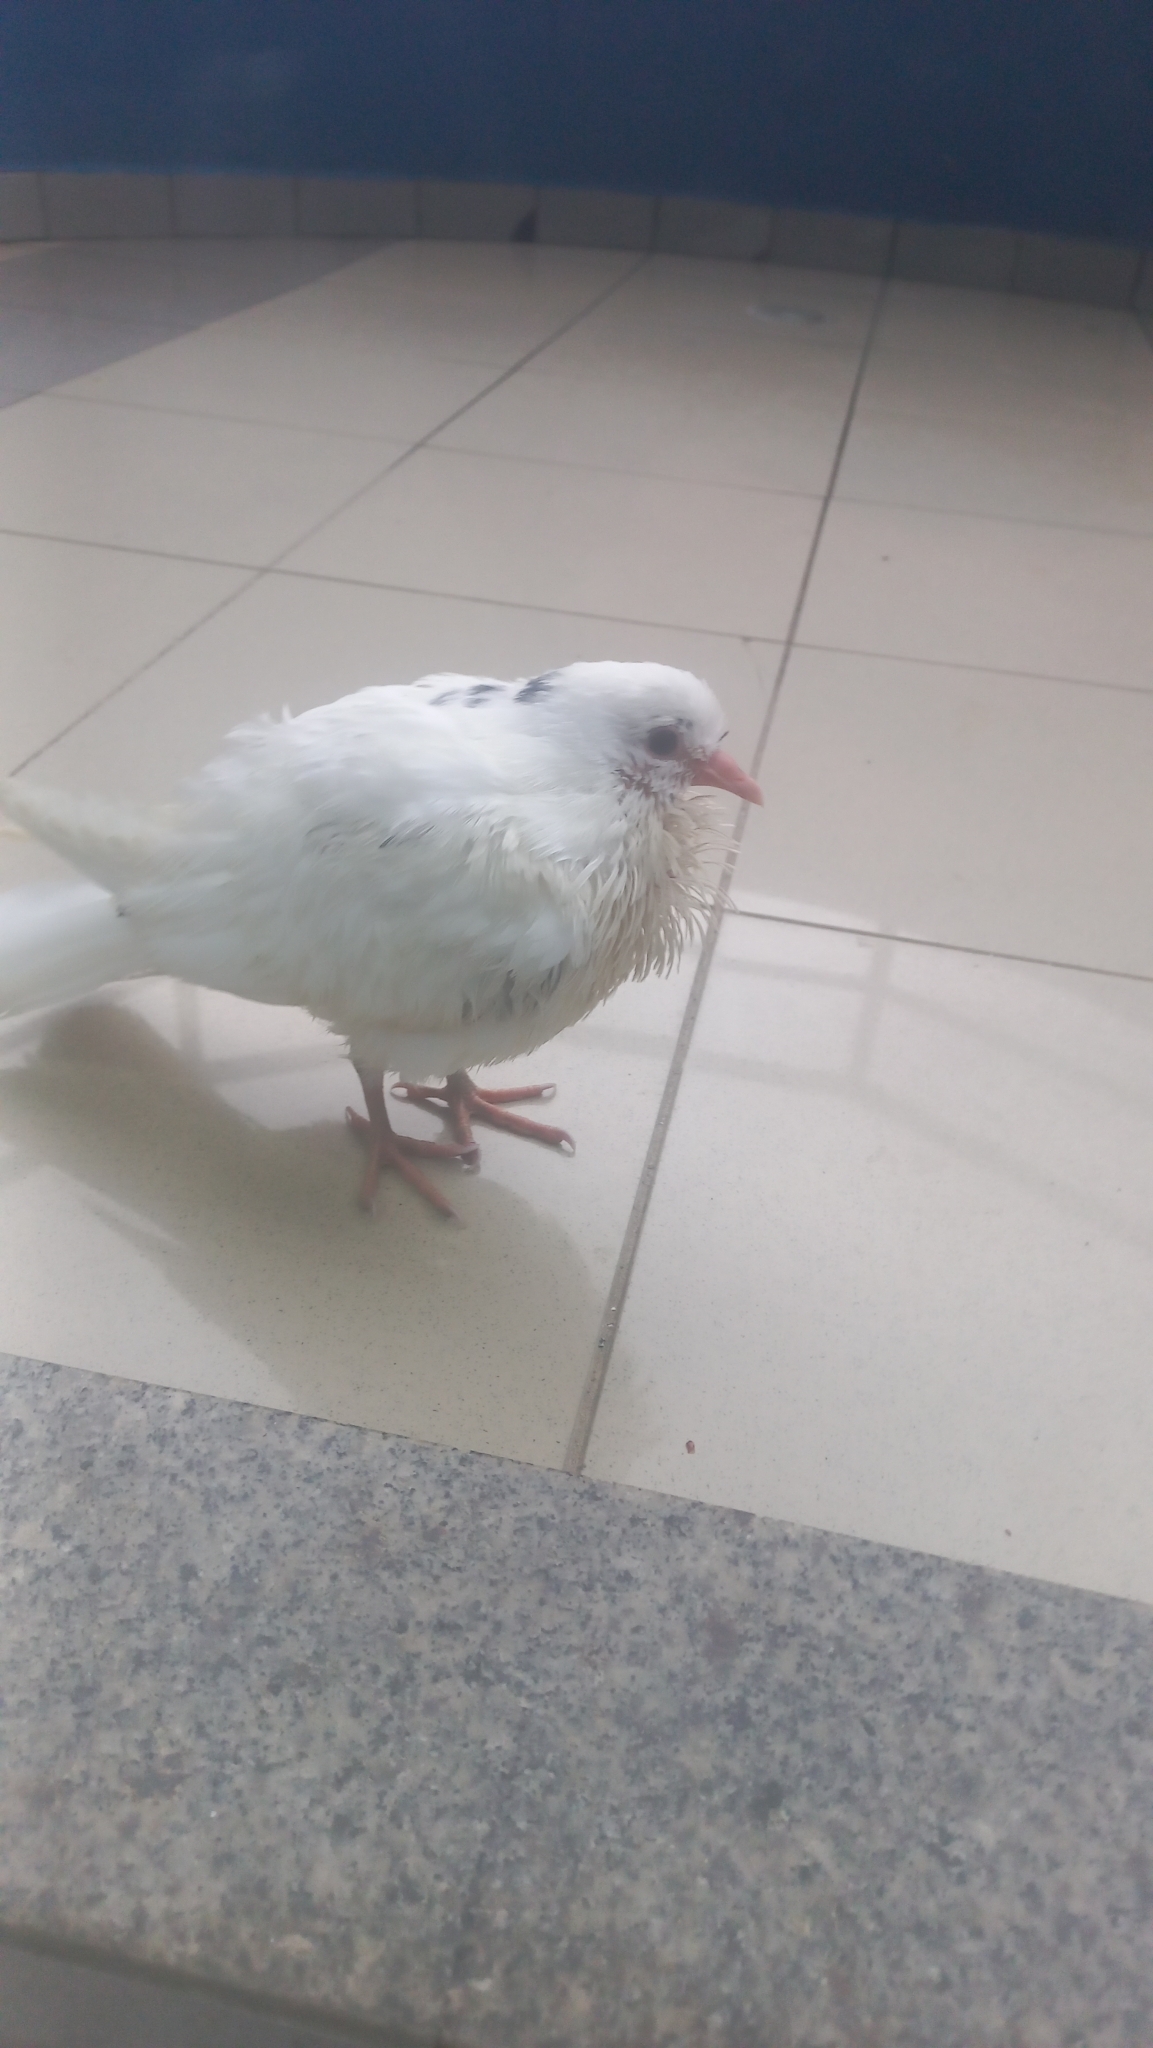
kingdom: Animalia
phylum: Chordata
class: Aves
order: Columbiformes
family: Columbidae
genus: Columba
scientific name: Columba livia
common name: Rock pigeon
